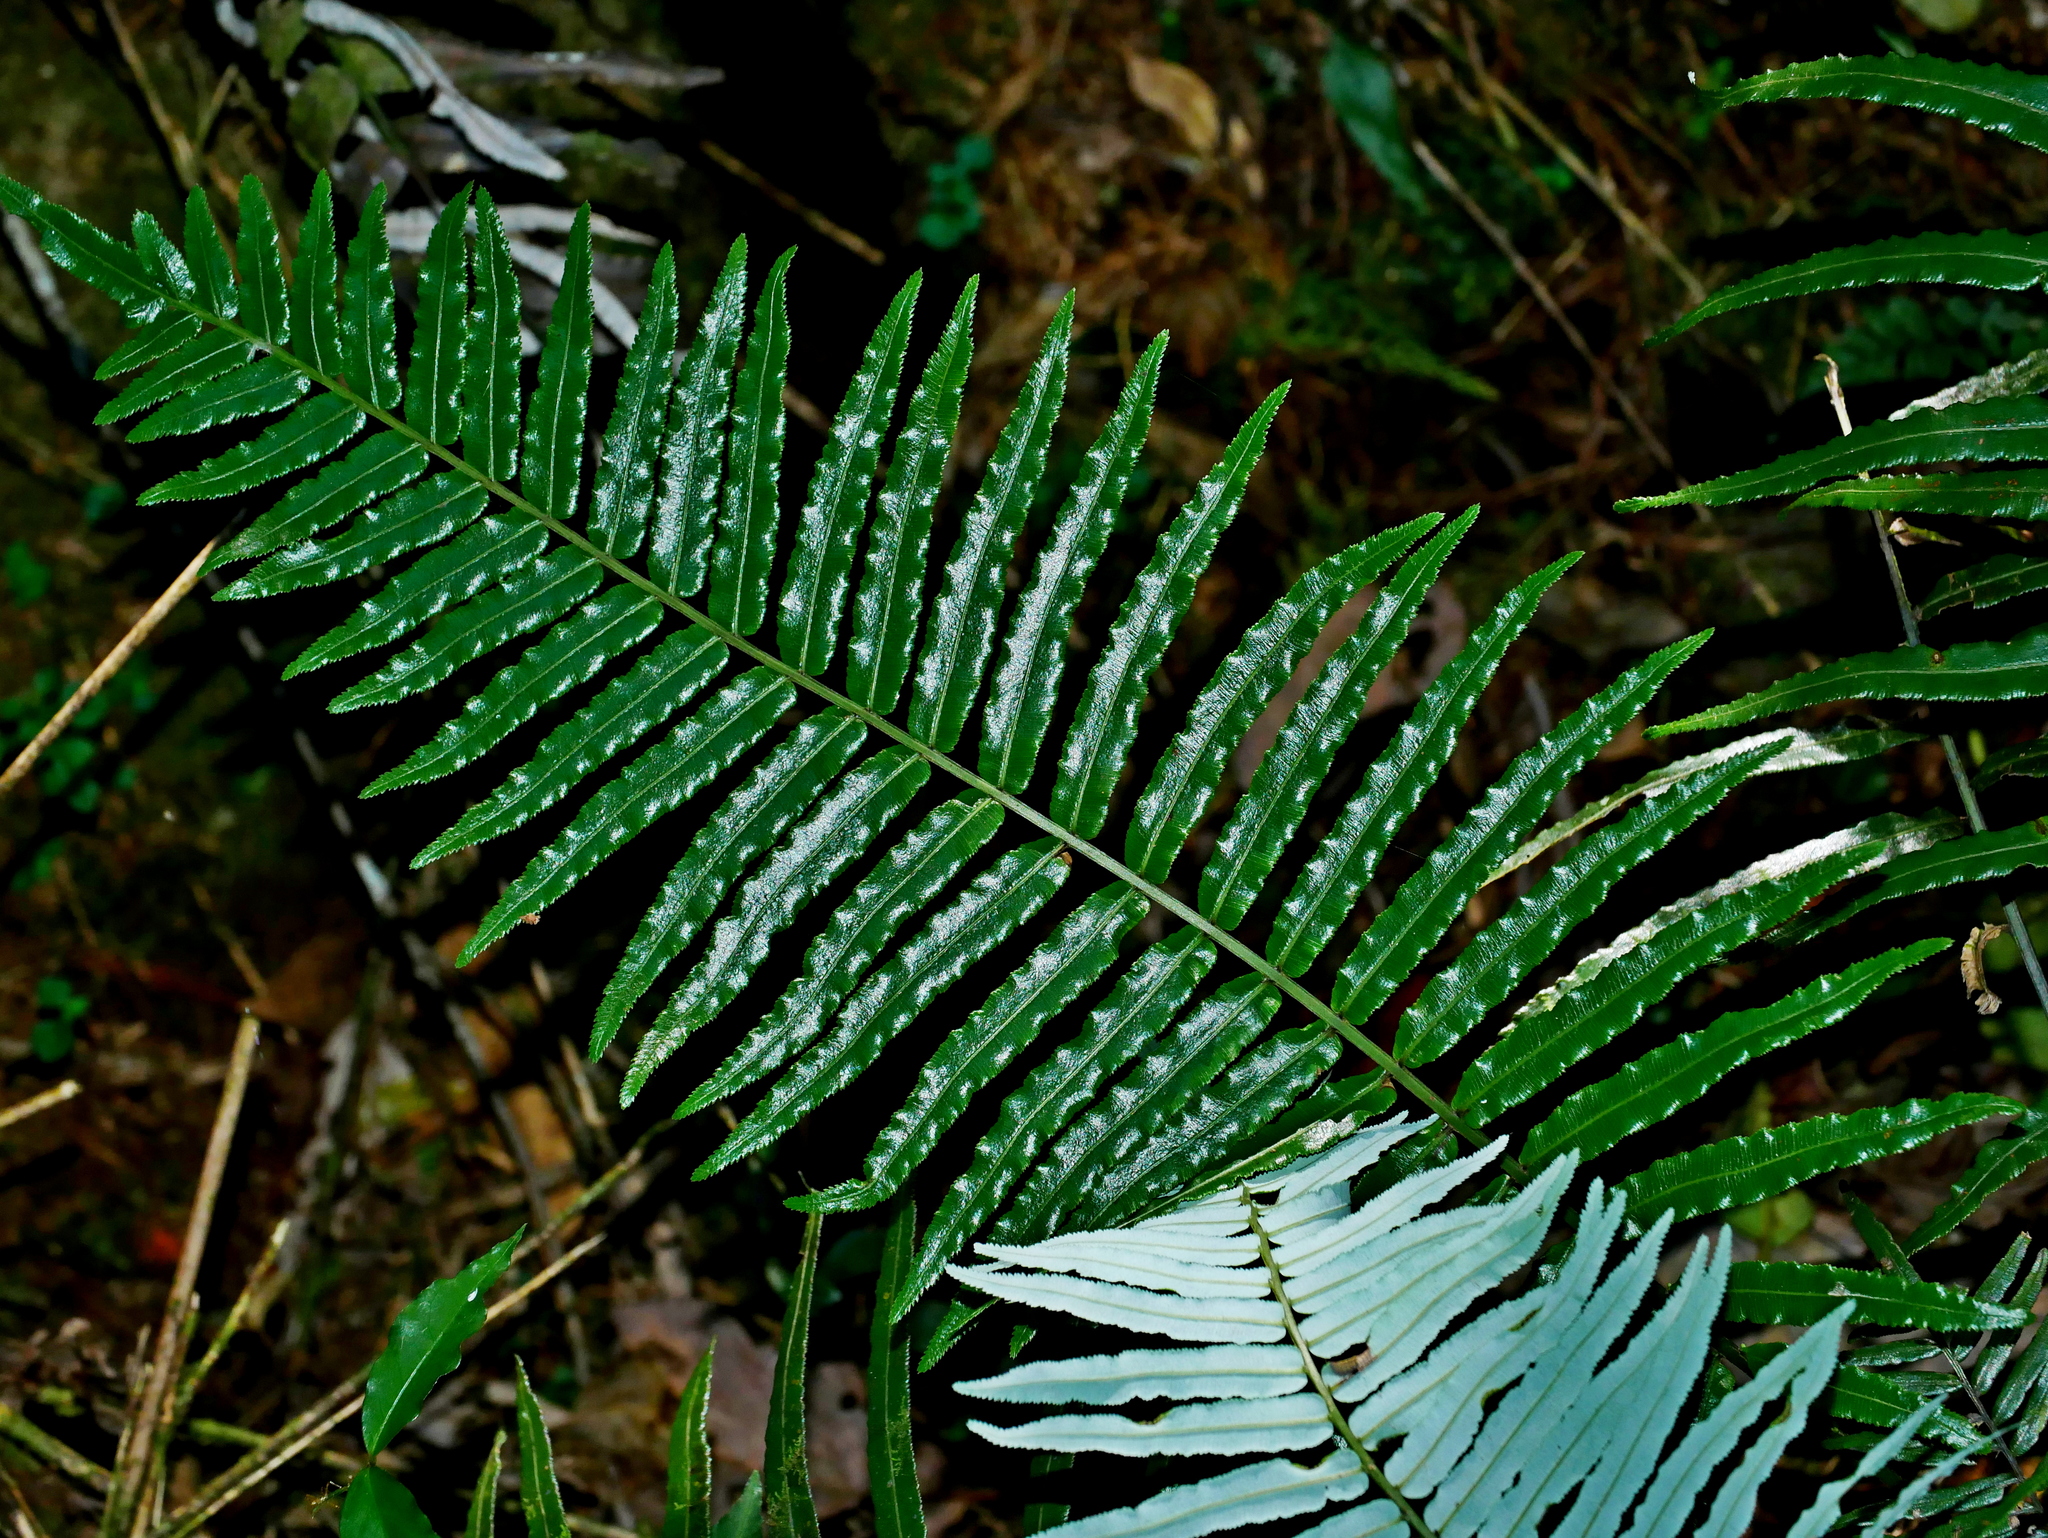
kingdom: Plantae
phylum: Tracheophyta
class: Polypodiopsida
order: Cyatheales
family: Plagiogyriaceae
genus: Plagiogyria
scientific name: Plagiogyria glauca
